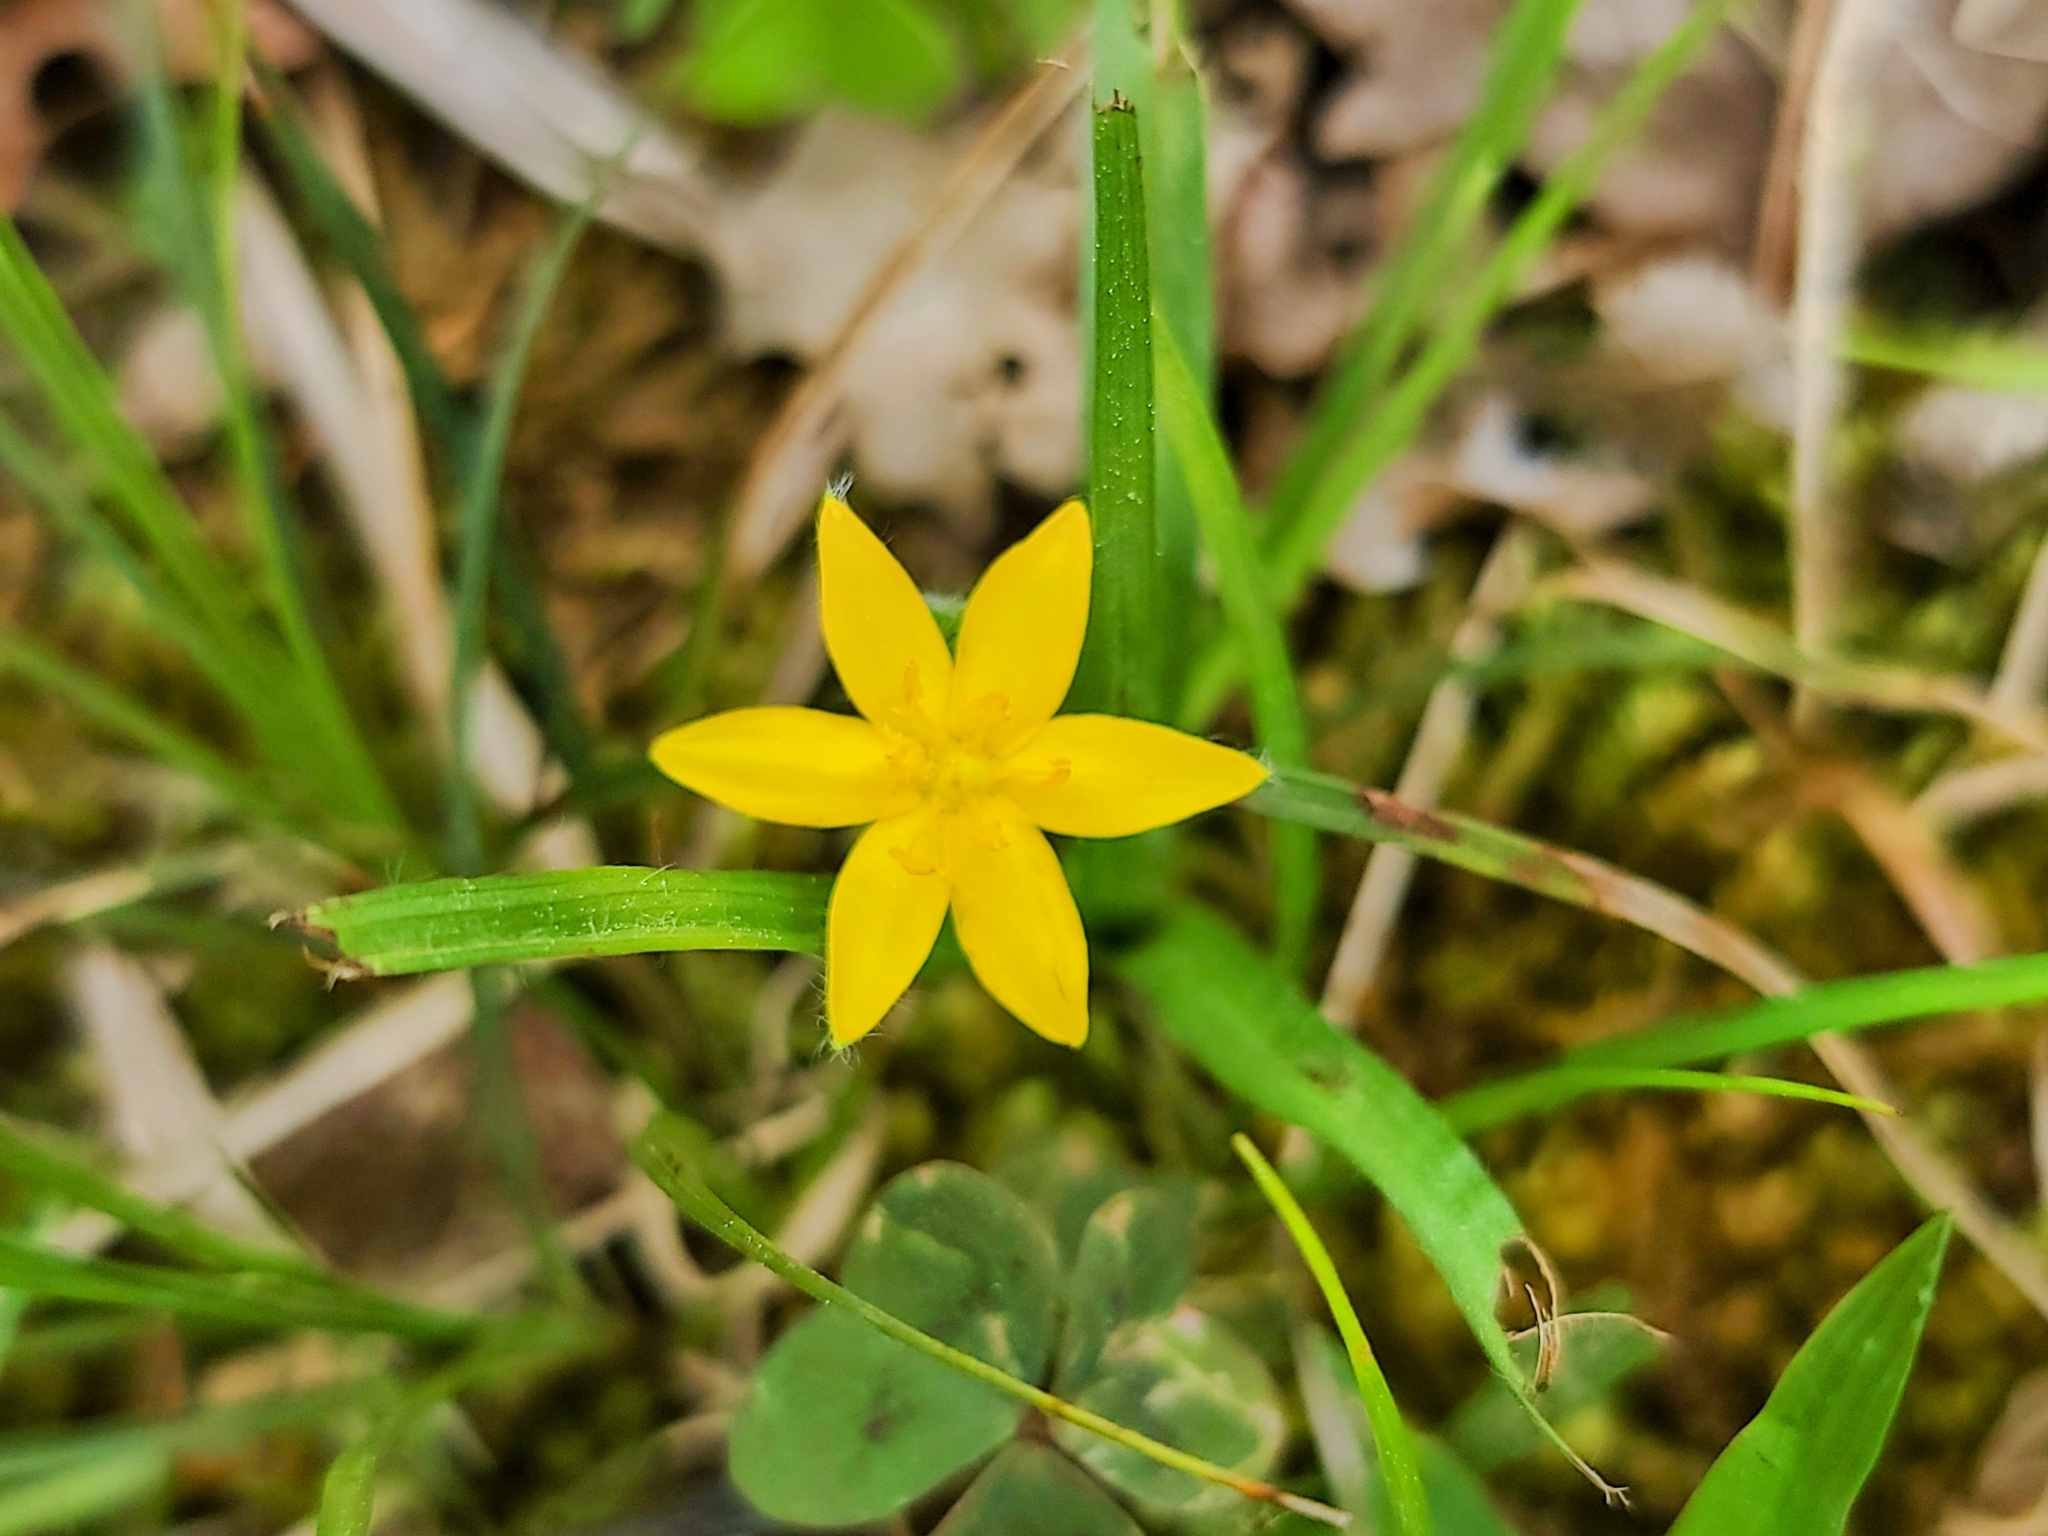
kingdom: Plantae
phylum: Tracheophyta
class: Liliopsida
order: Asparagales
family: Hypoxidaceae
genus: Hypoxis
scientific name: Hypoxis hirsuta
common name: Common goldstar
